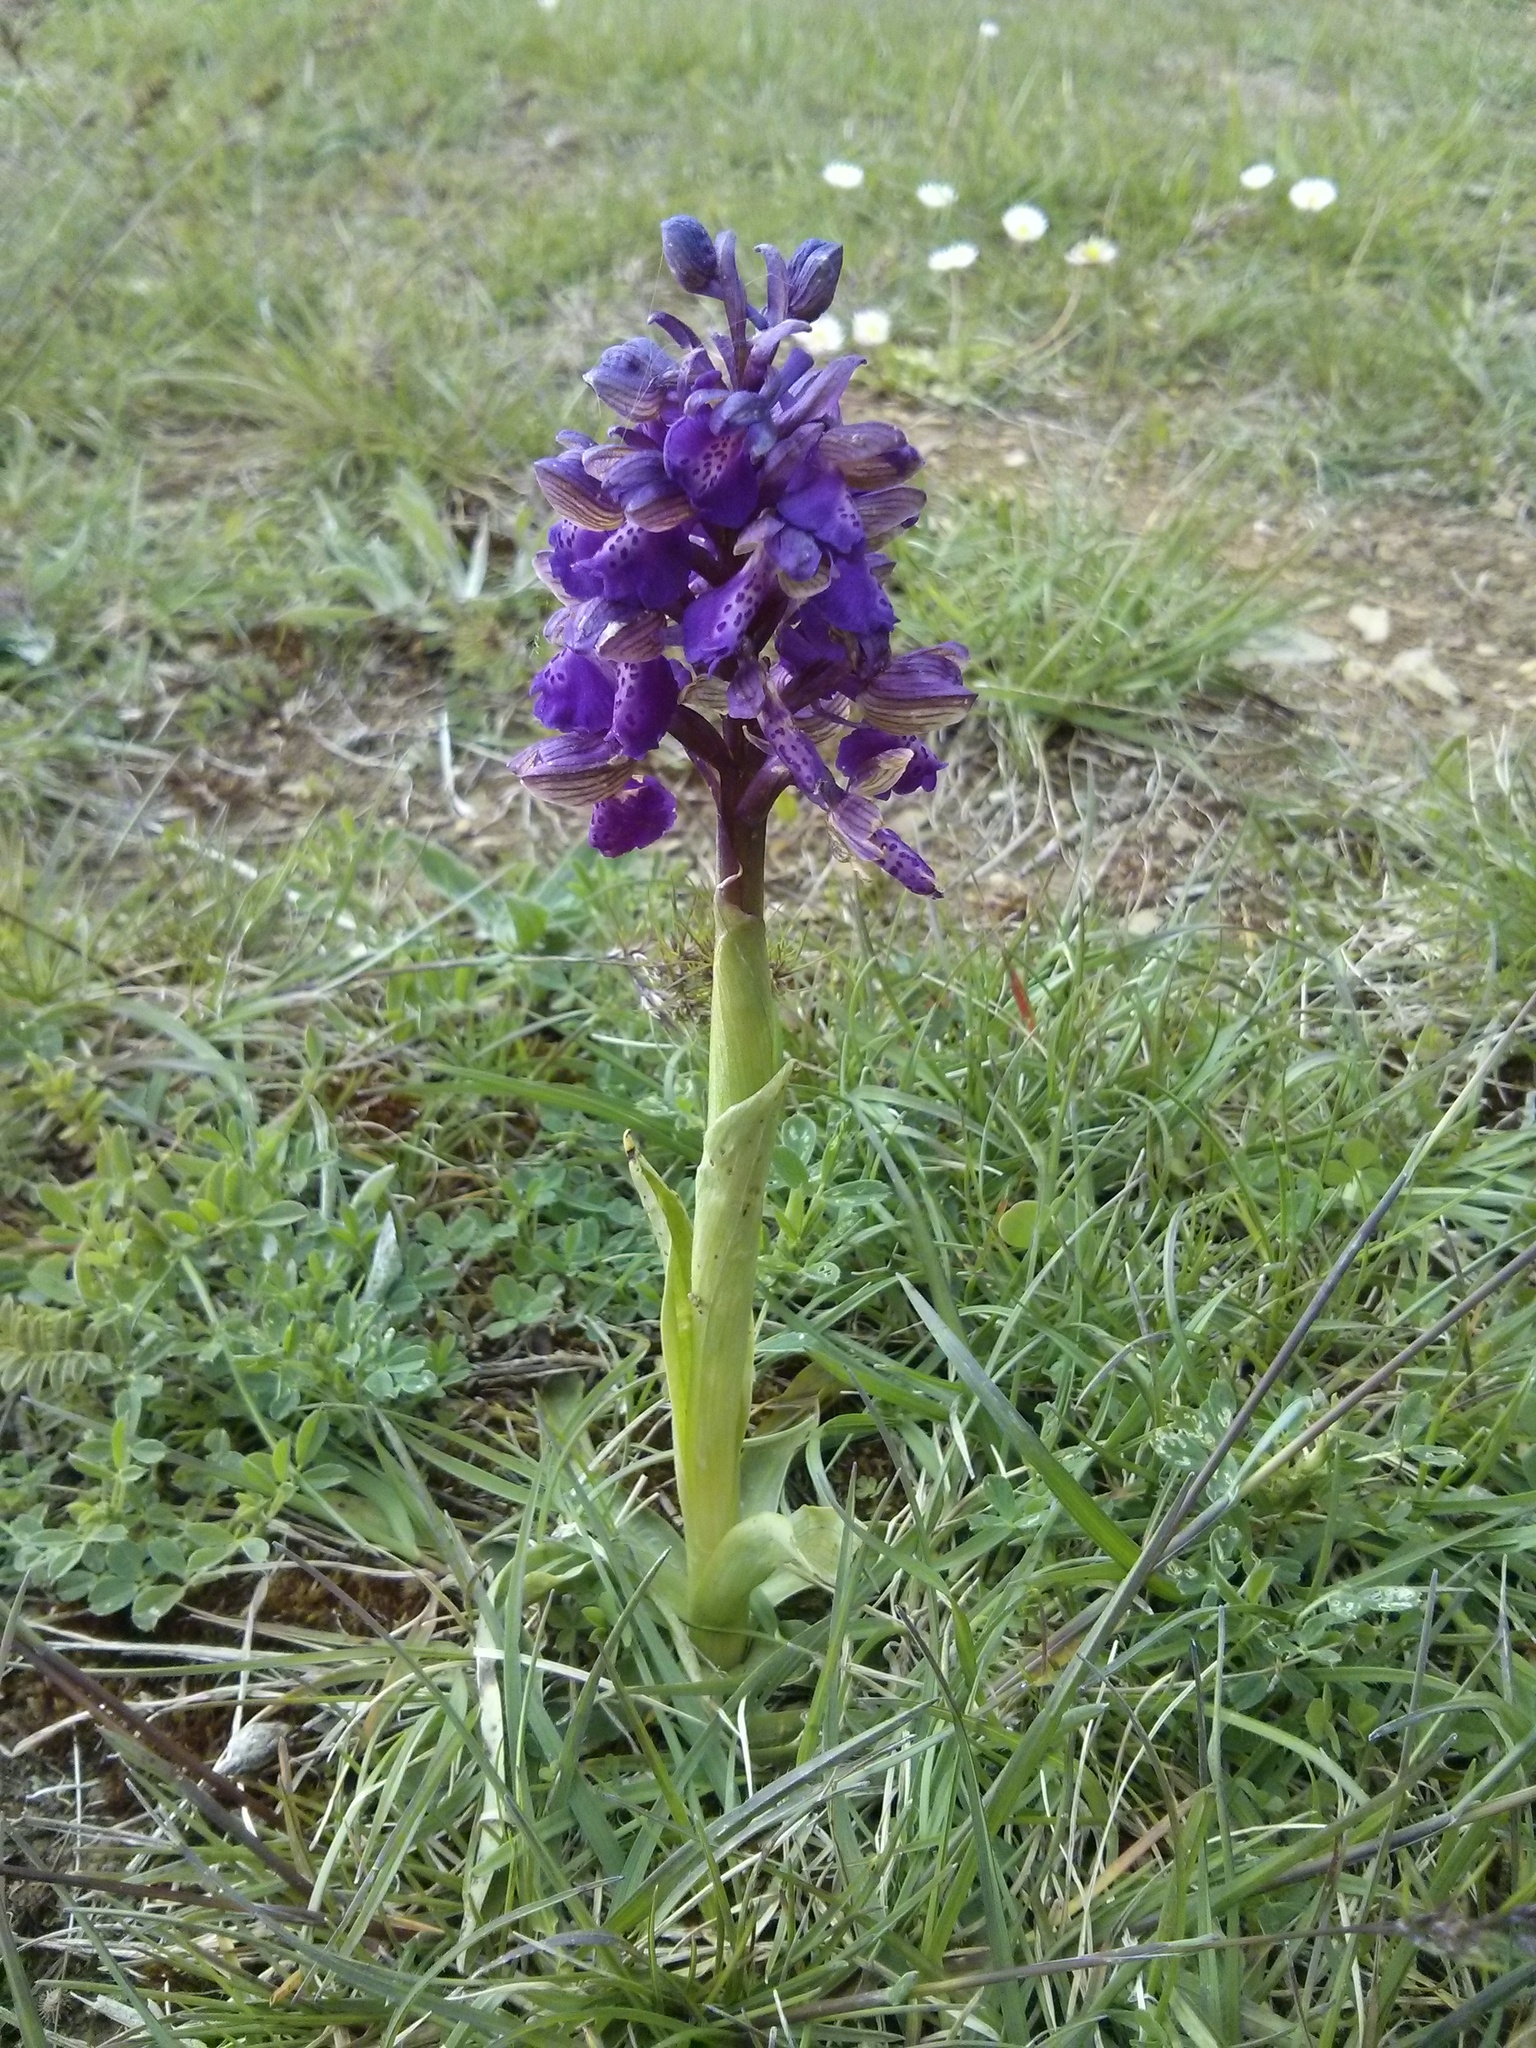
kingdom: Plantae
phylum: Tracheophyta
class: Liliopsida
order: Asparagales
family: Orchidaceae
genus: Anacamptis
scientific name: Anacamptis morio
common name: Green-winged orchid
